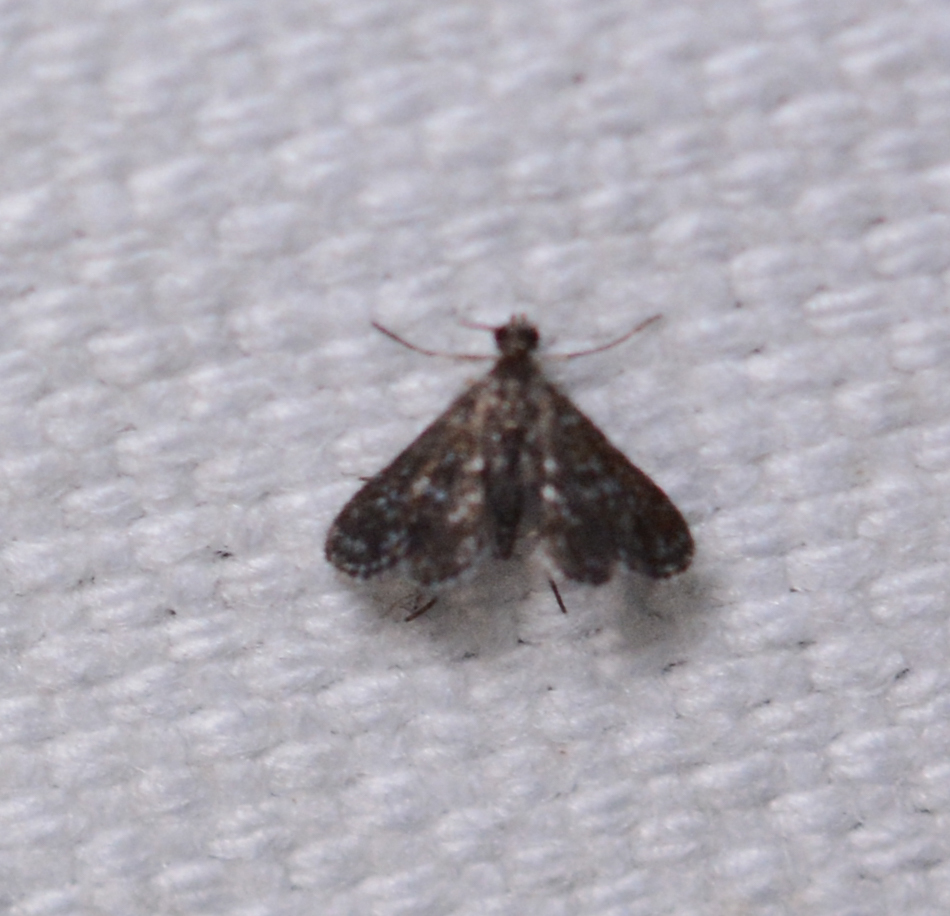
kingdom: Animalia
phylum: Arthropoda
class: Insecta
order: Lepidoptera
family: Crambidae
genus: Elophila
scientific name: Elophila tinealis
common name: Black duckweed moth
